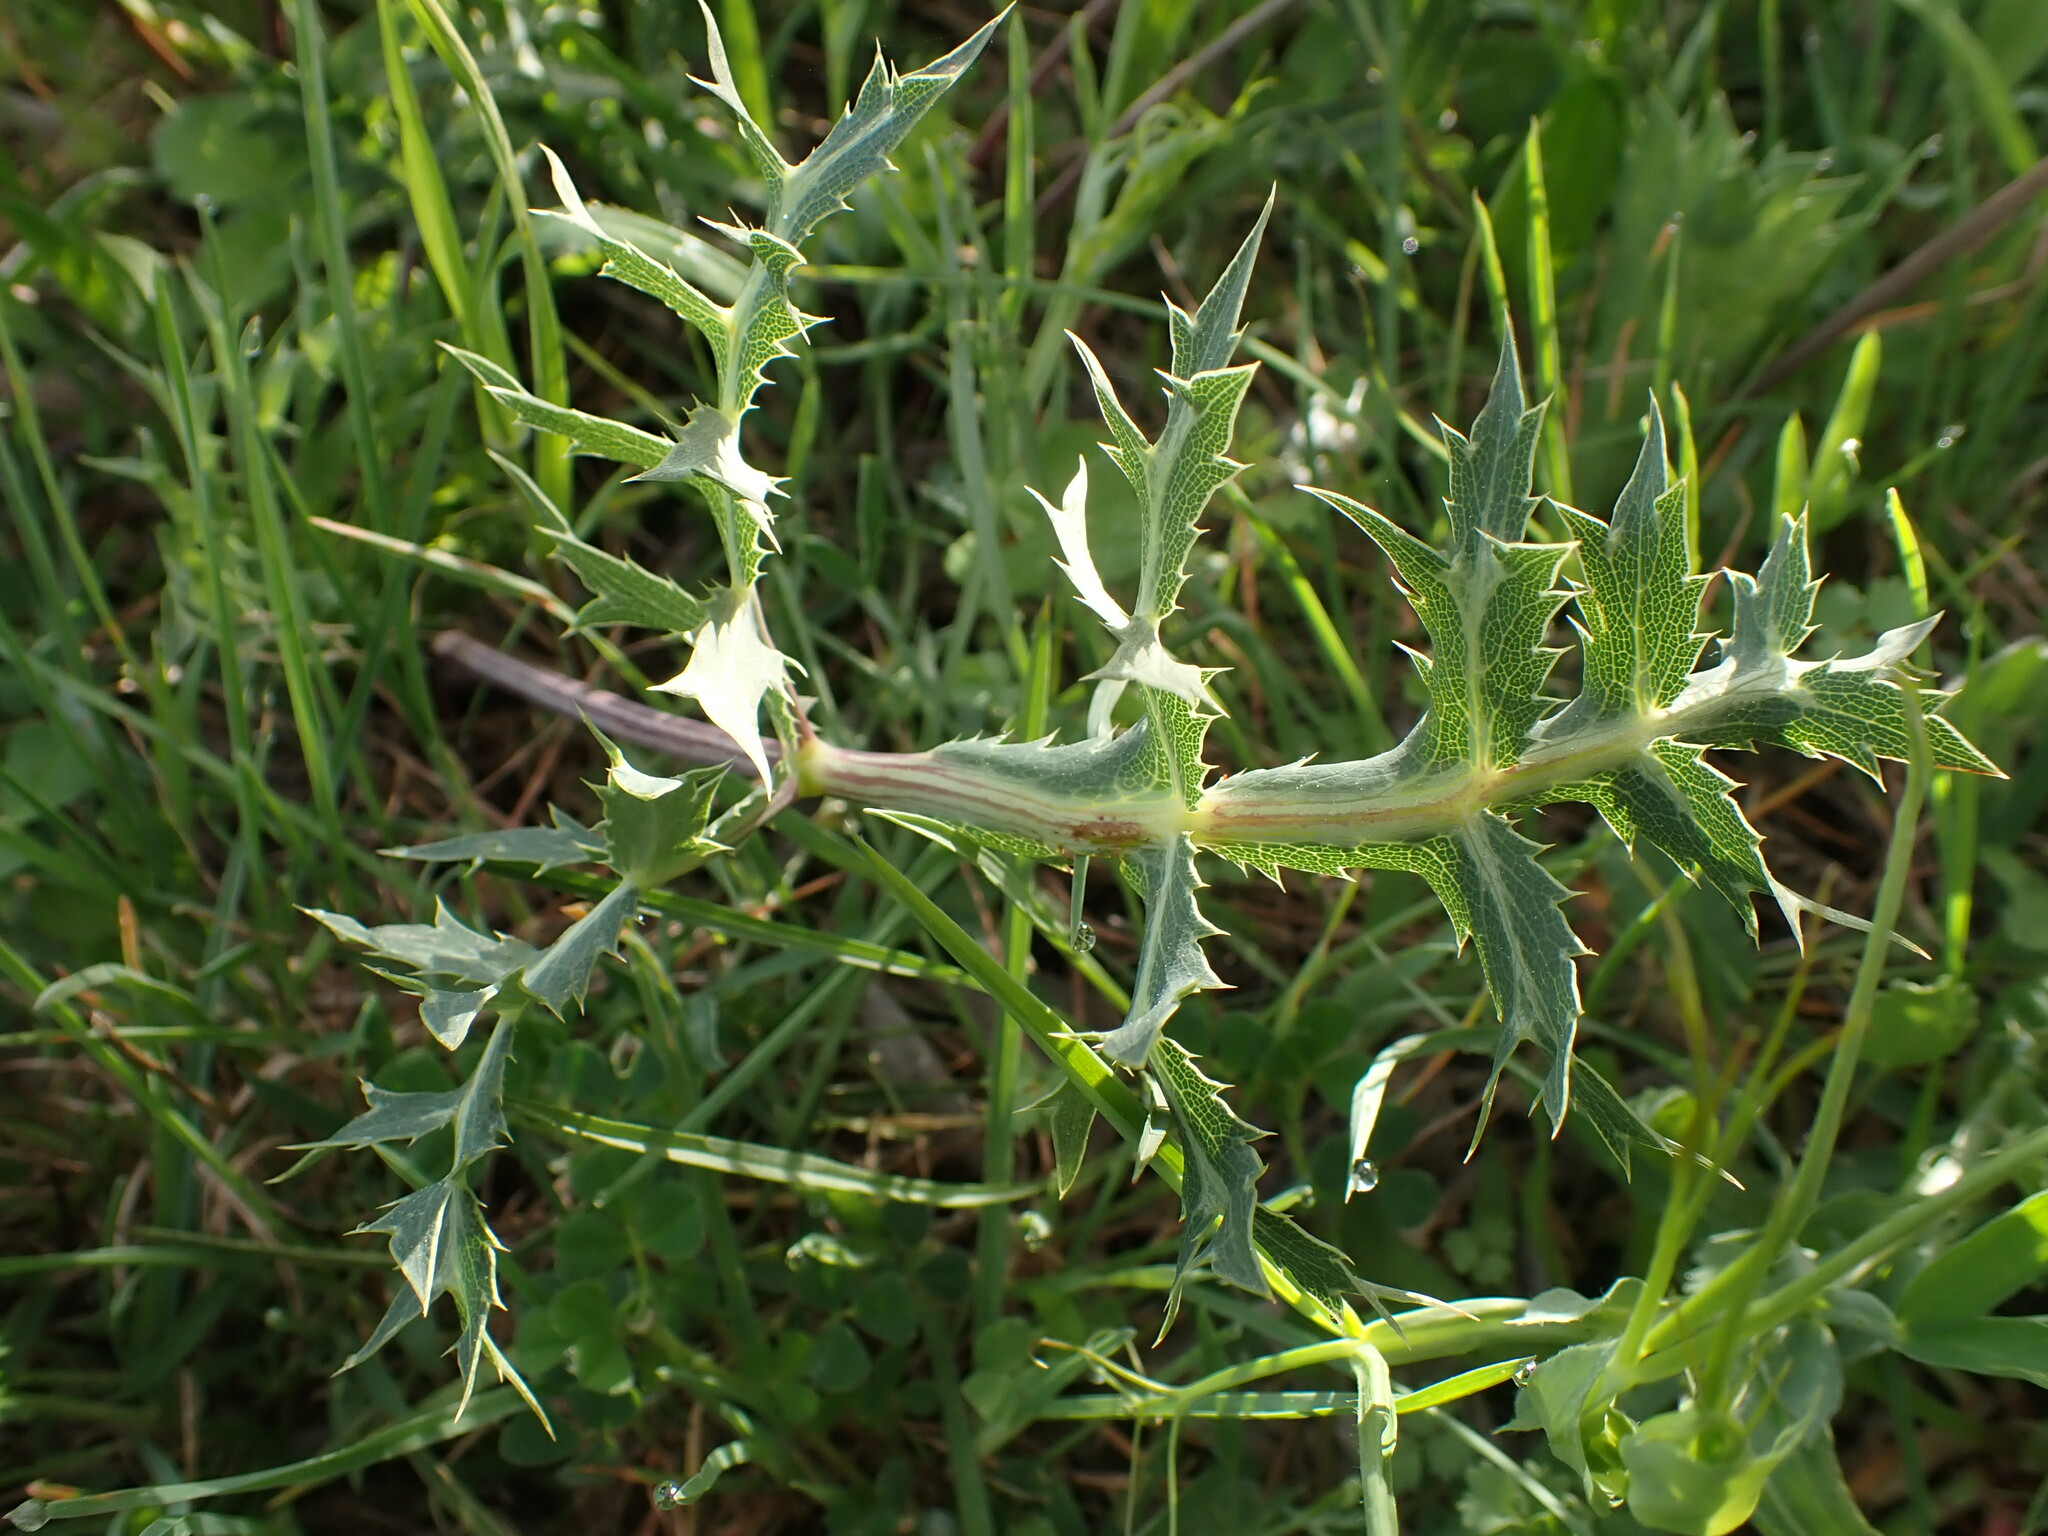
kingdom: Plantae
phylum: Tracheophyta
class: Magnoliopsida
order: Apiales
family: Apiaceae
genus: Eryngium
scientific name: Eryngium campestre
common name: Field eryngo
